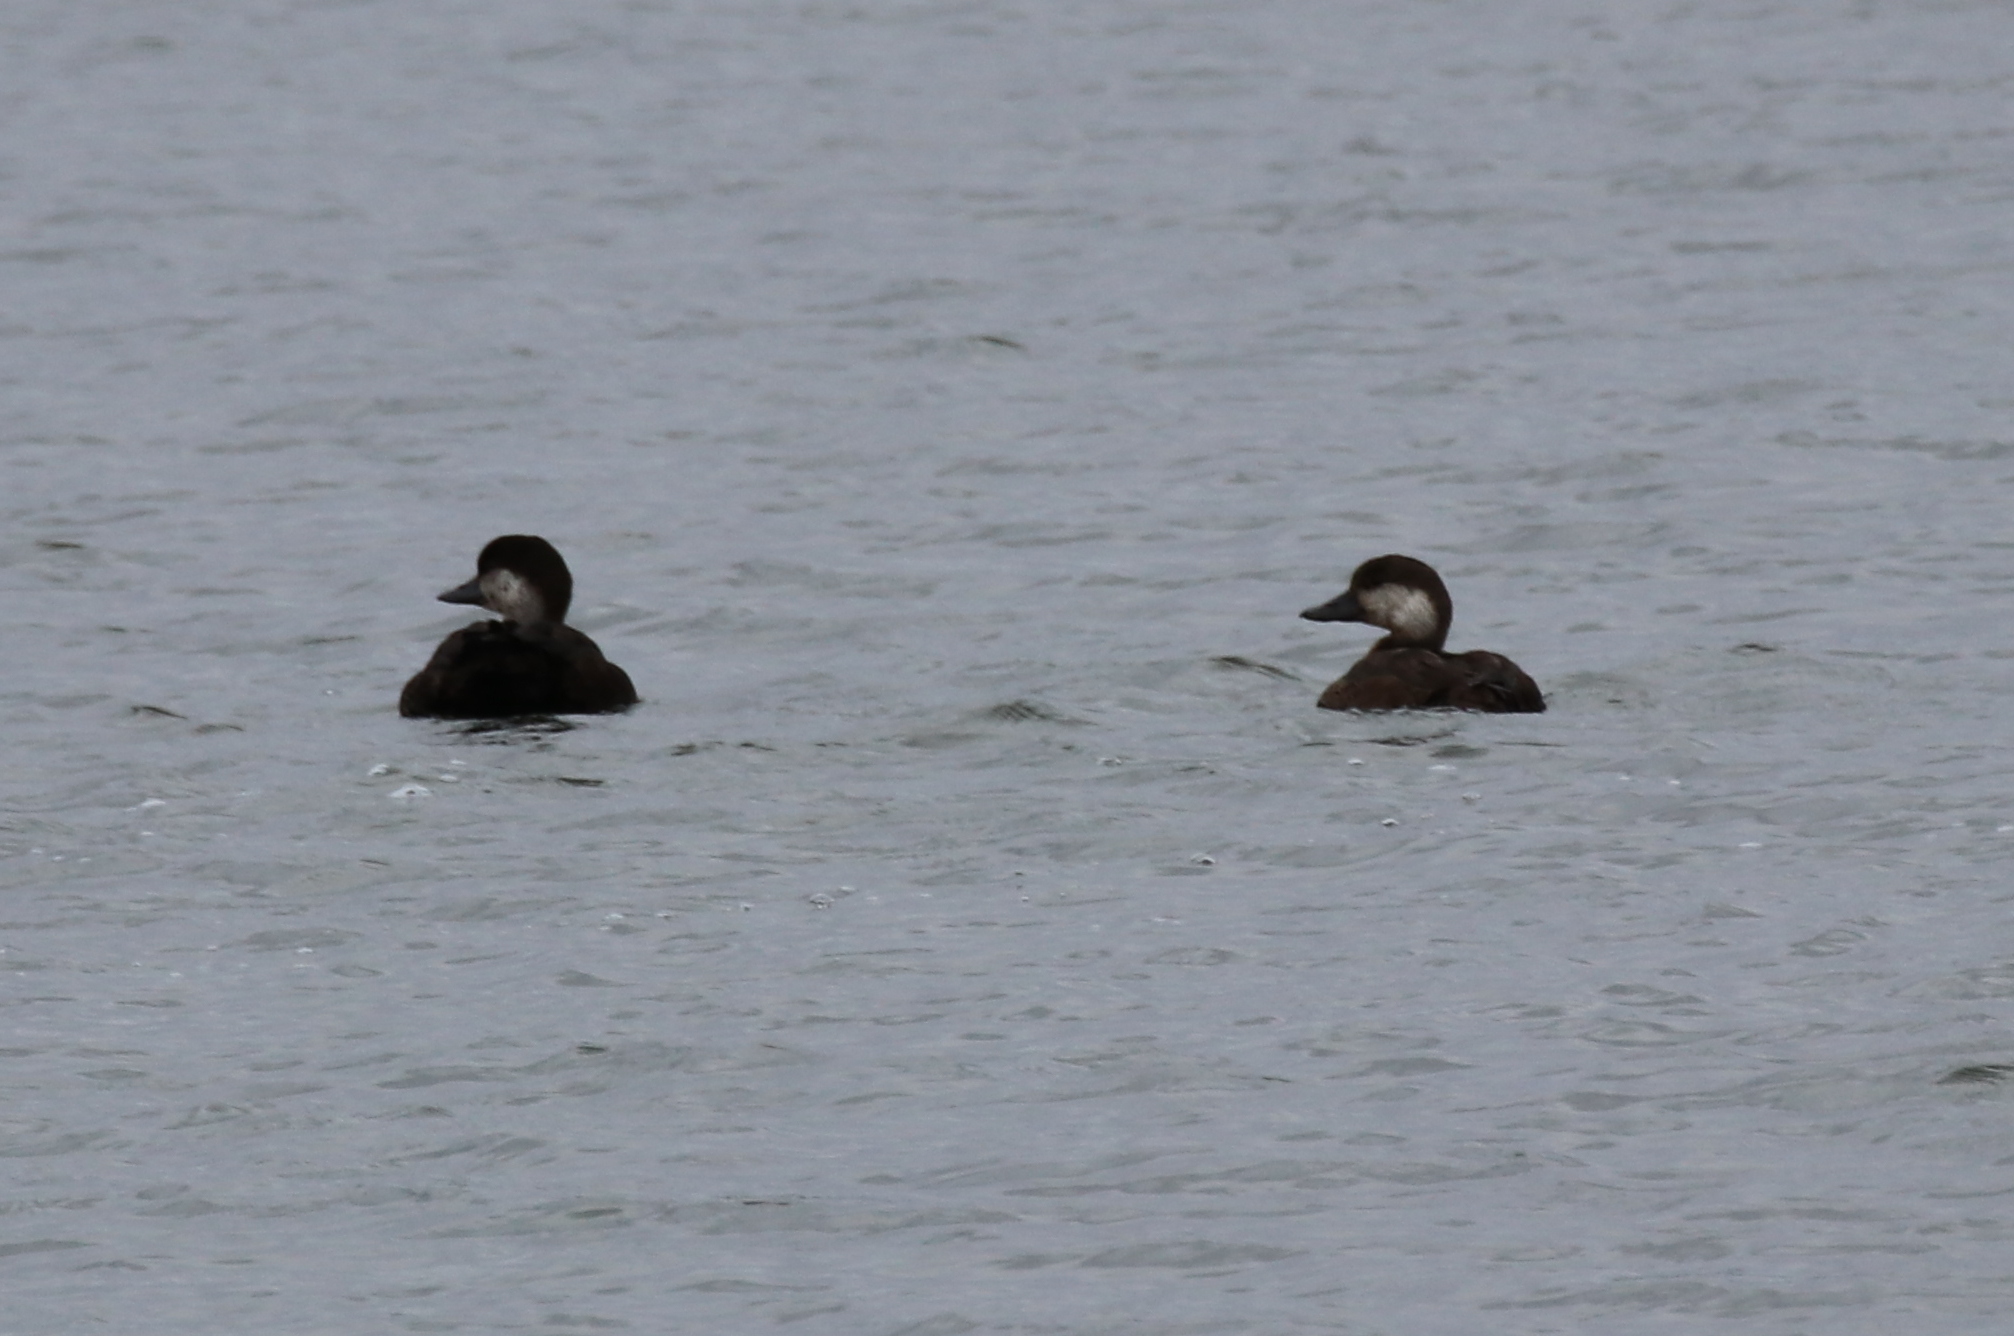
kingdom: Animalia
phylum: Chordata
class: Aves
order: Anseriformes
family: Anatidae
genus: Melanitta
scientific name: Melanitta americana
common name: Black scoter
